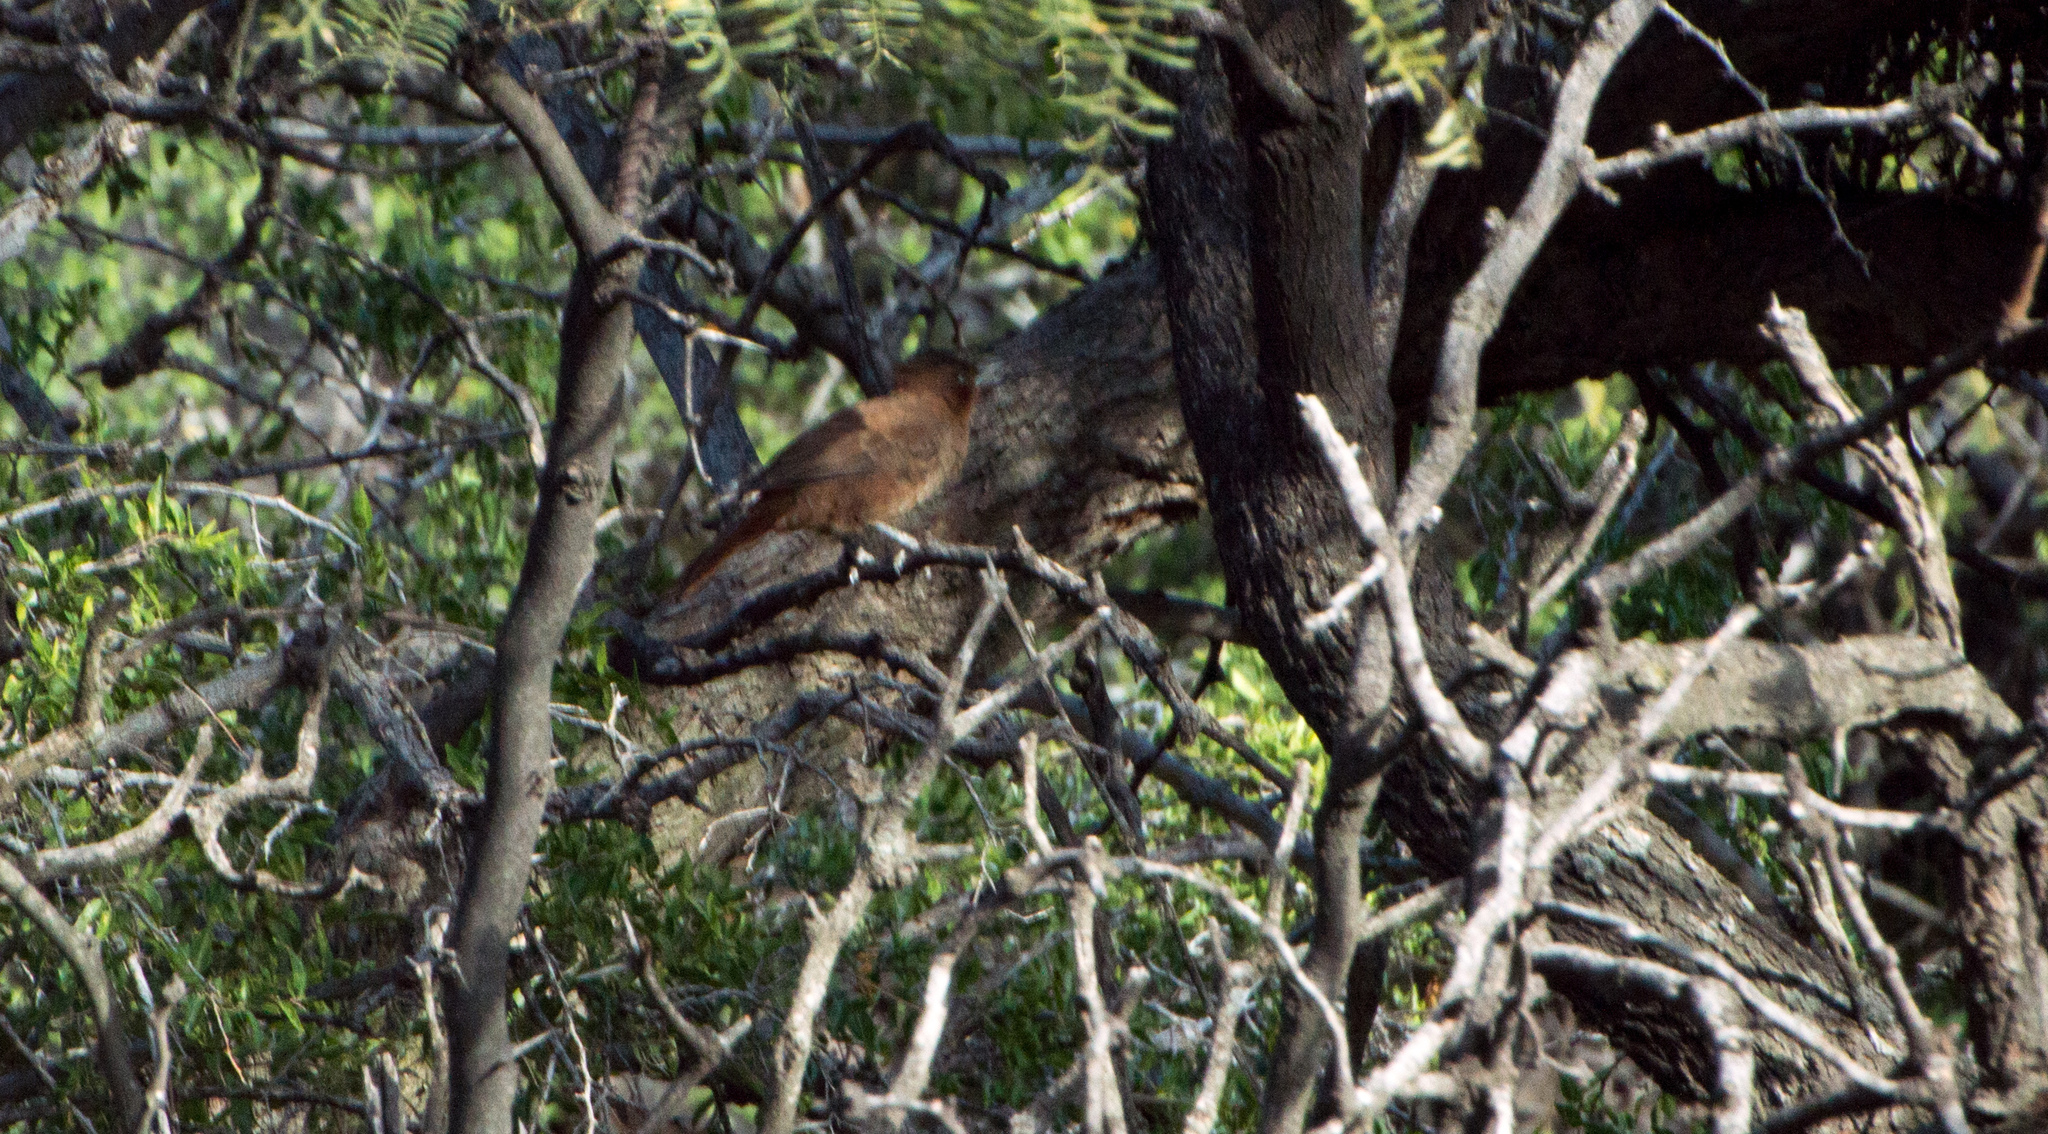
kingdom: Animalia
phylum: Chordata
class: Aves
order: Passeriformes
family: Furnariidae
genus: Pseudoseisura
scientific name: Pseudoseisura lophotes
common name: Brown cacholote
